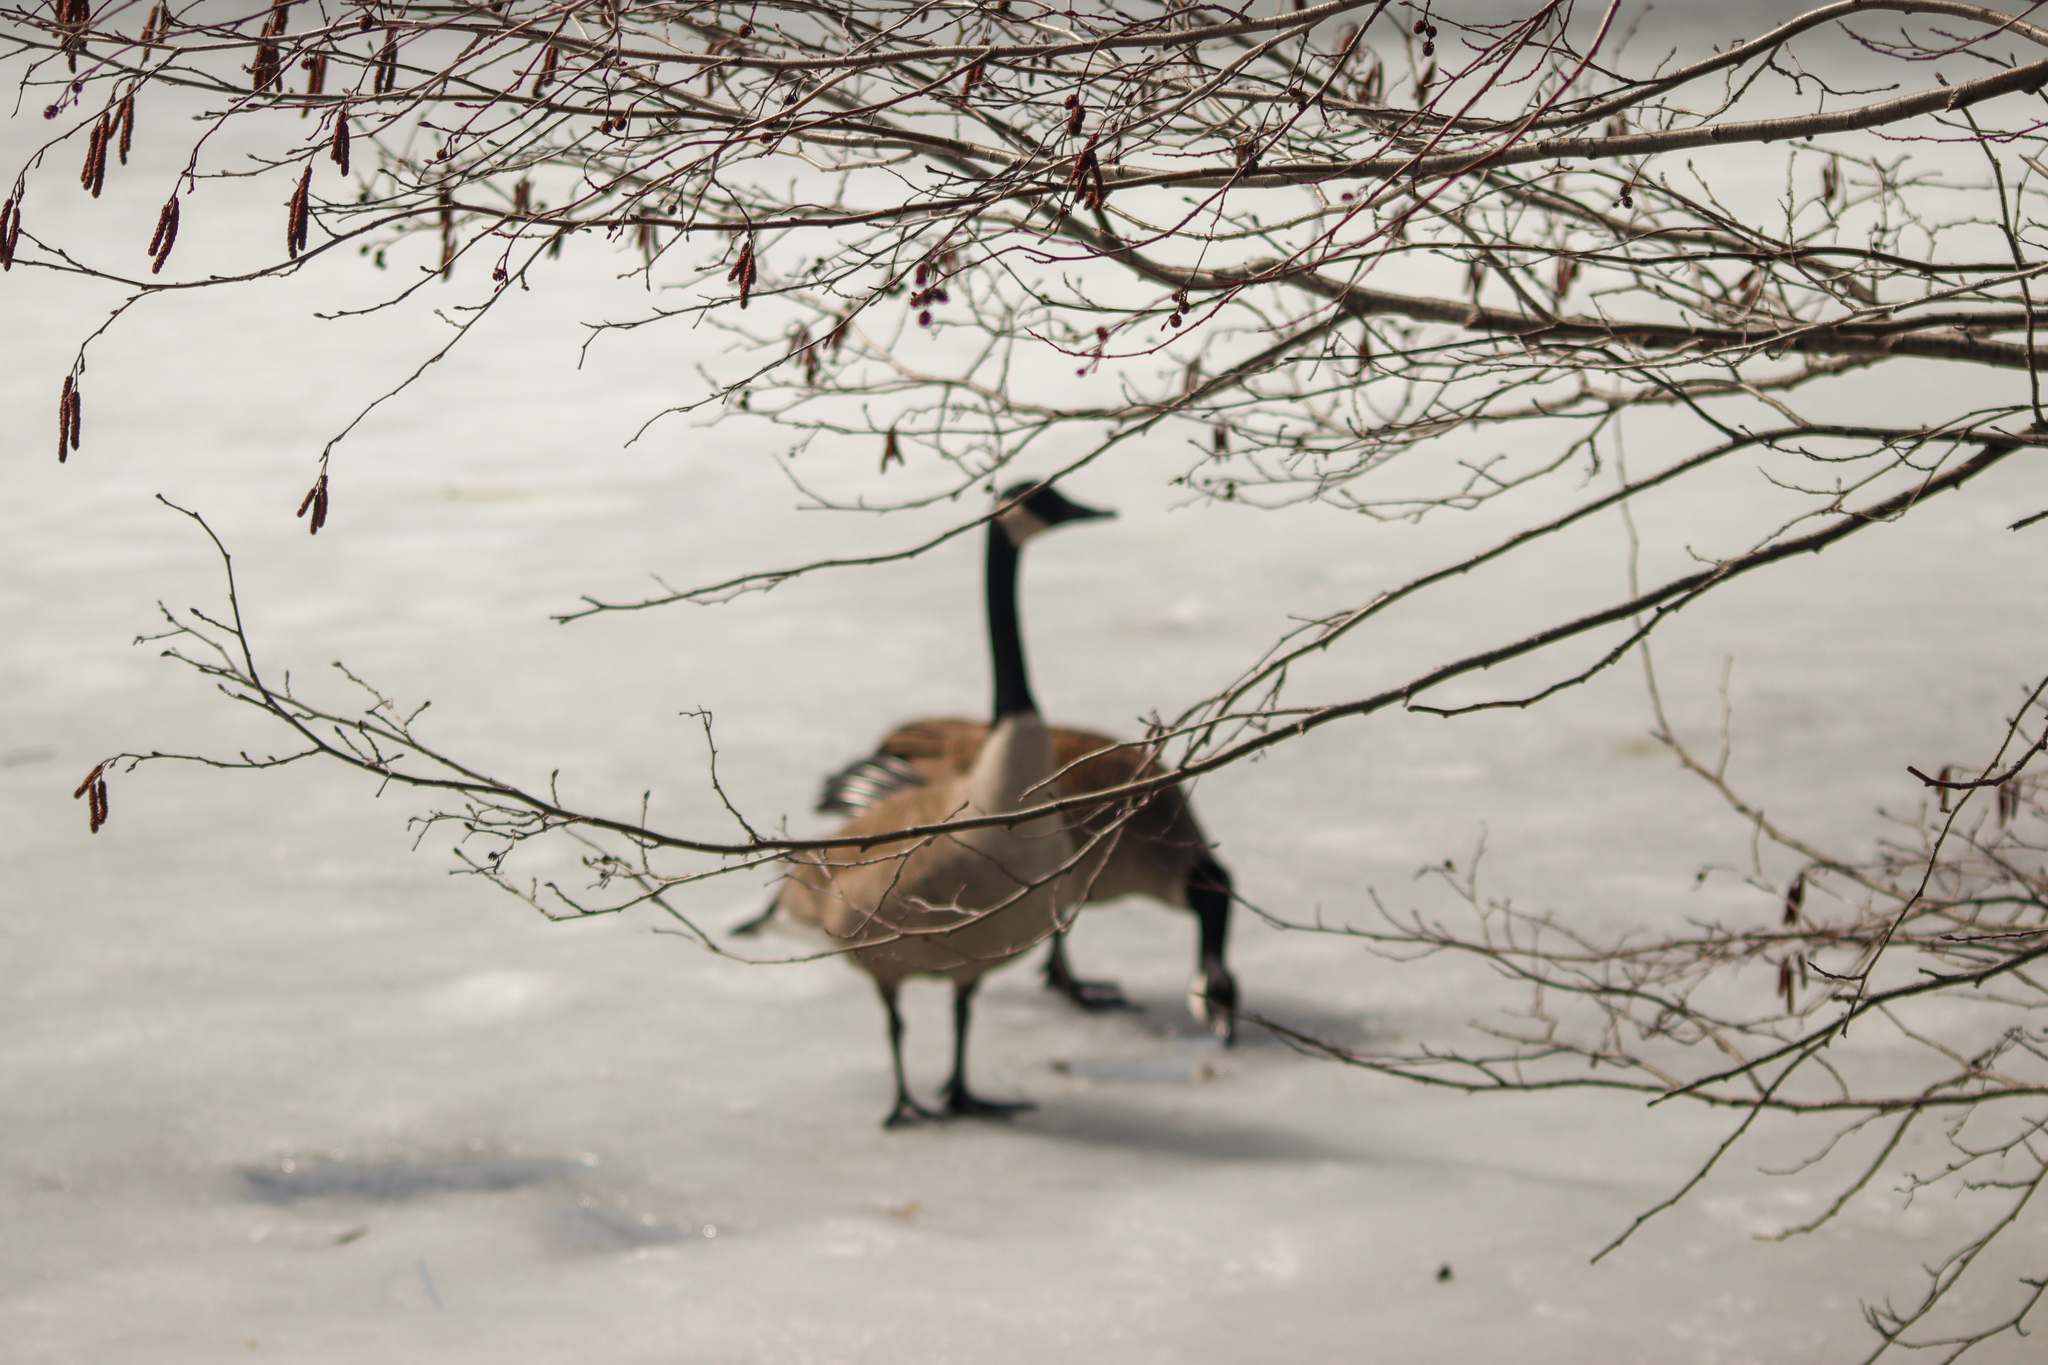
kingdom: Animalia
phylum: Chordata
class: Aves
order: Anseriformes
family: Anatidae
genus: Branta
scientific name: Branta canadensis
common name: Canada goose
